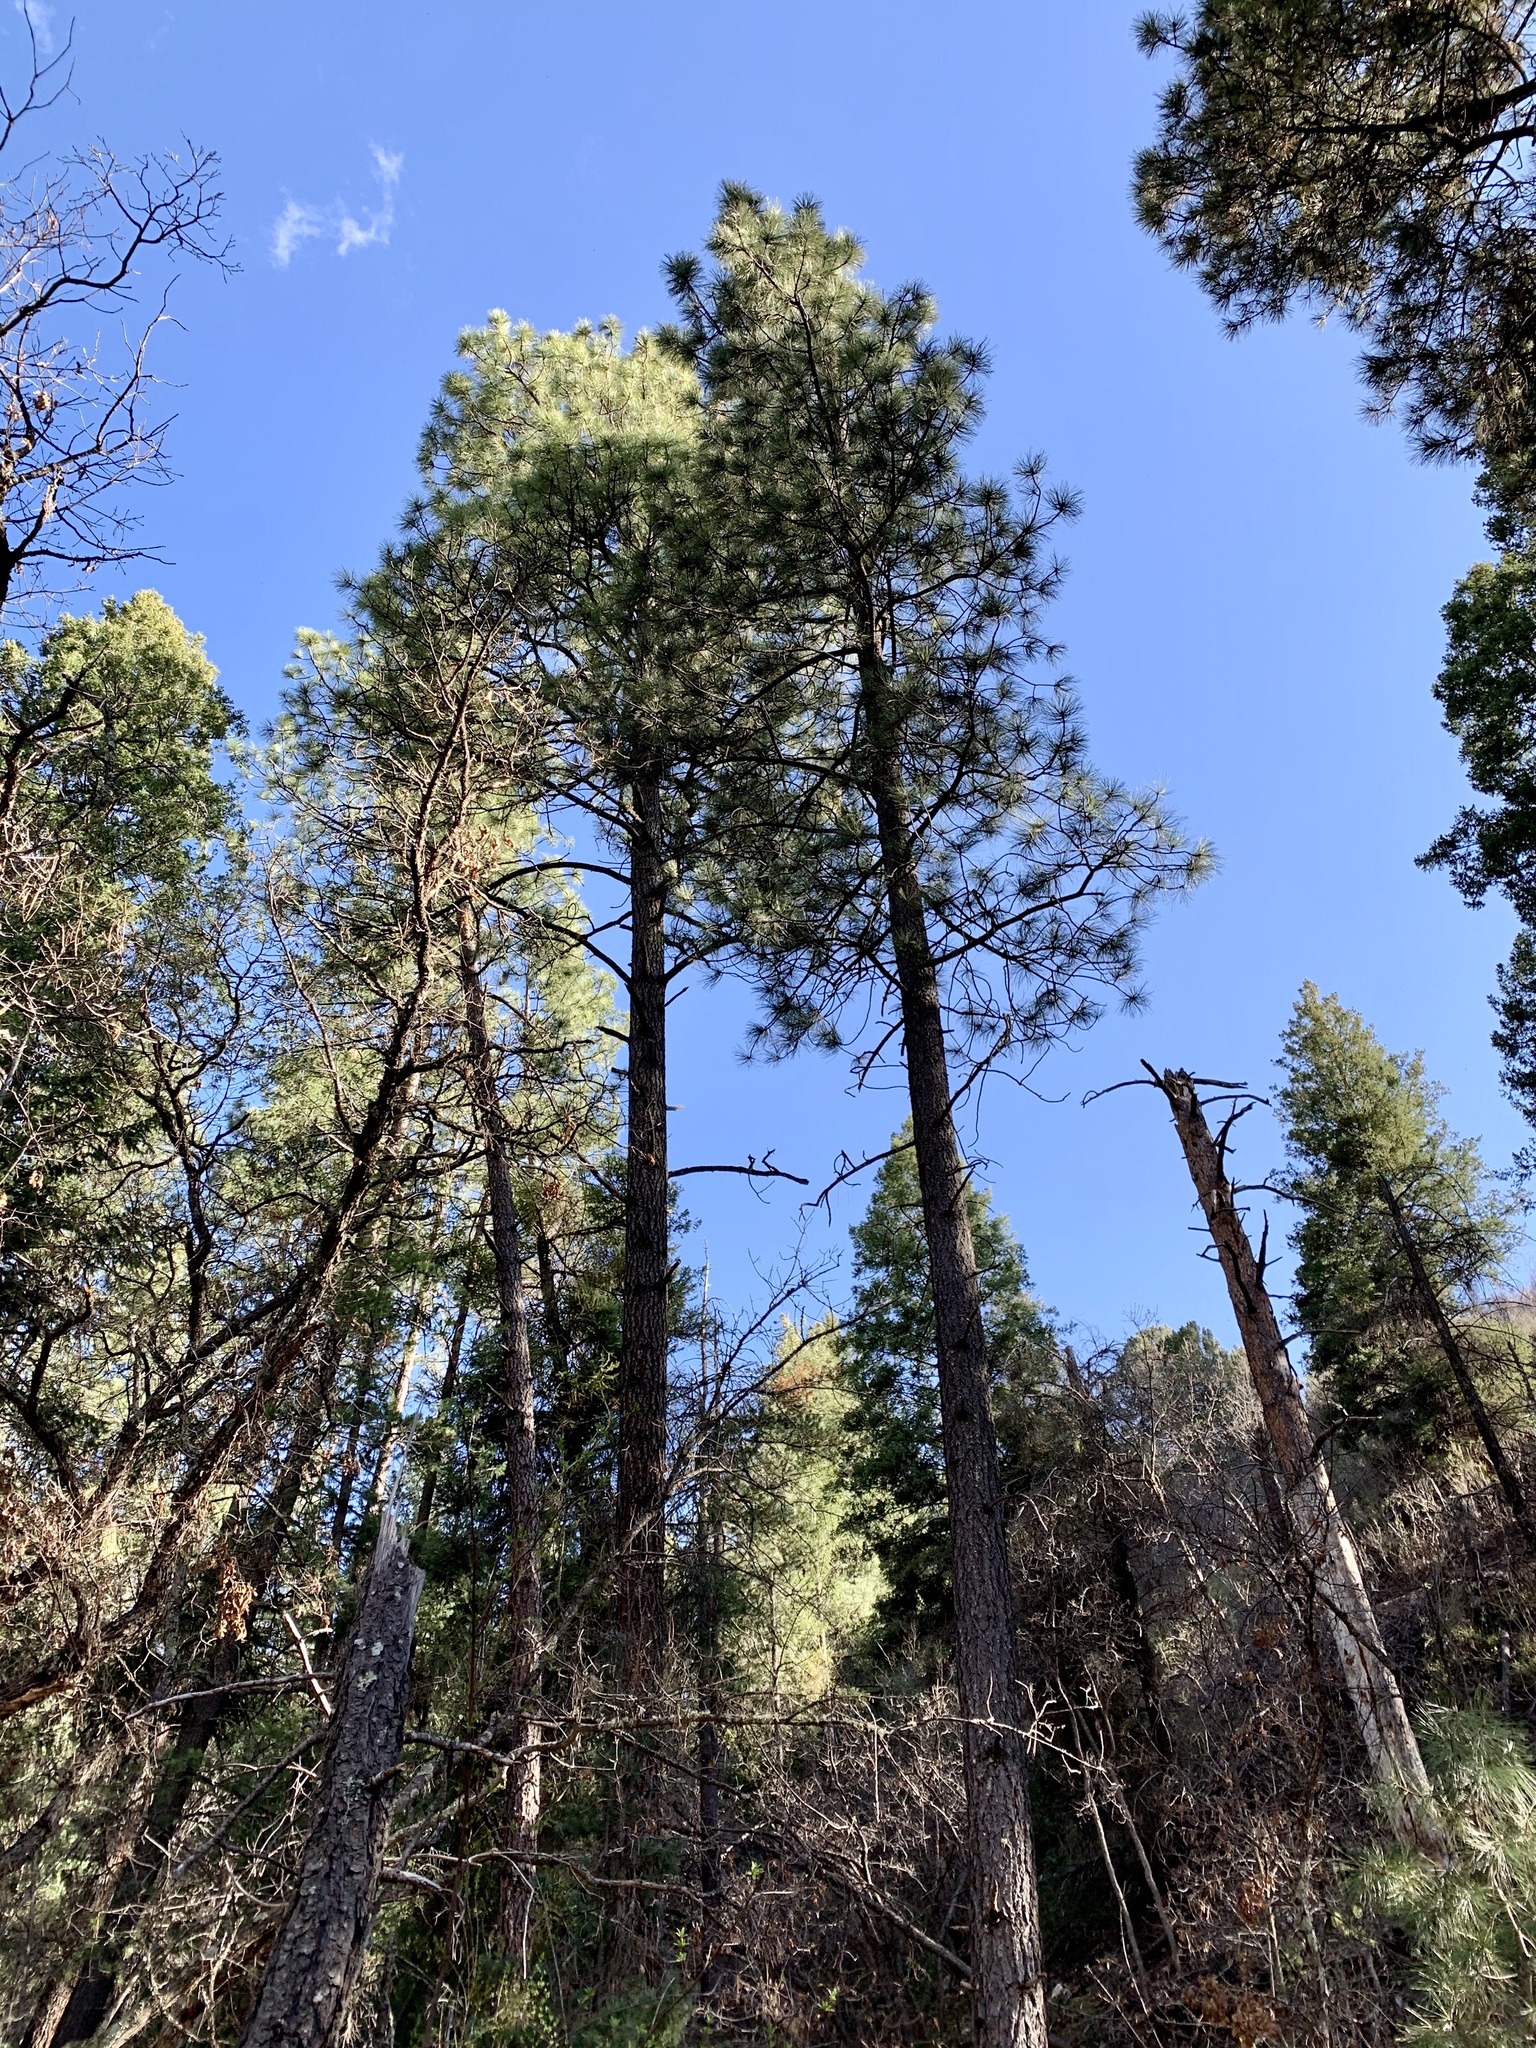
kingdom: Plantae
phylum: Tracheophyta
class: Pinopsida
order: Pinales
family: Pinaceae
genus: Pinus
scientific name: Pinus ponderosa
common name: Western yellow-pine
